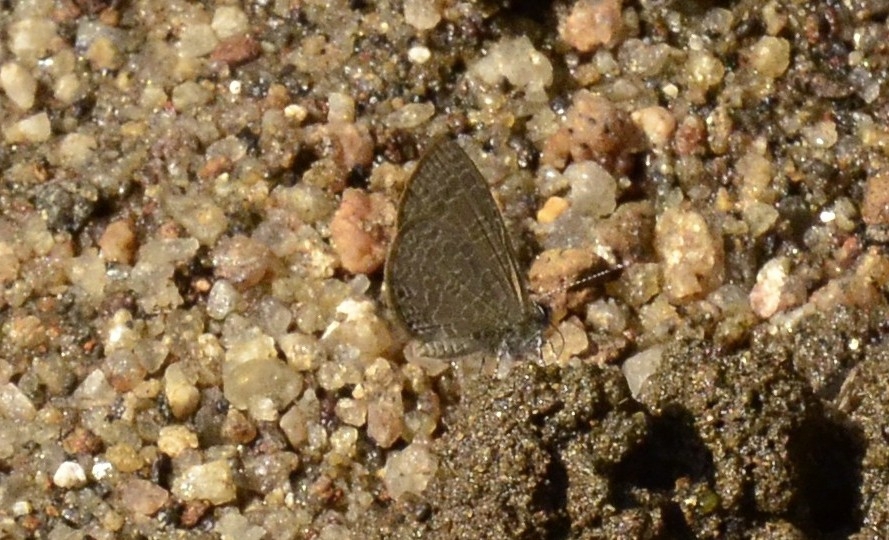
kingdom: Animalia
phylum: Arthropoda
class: Insecta
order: Lepidoptera
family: Lycaenidae
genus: Petrelaea
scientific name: Petrelaea dana
